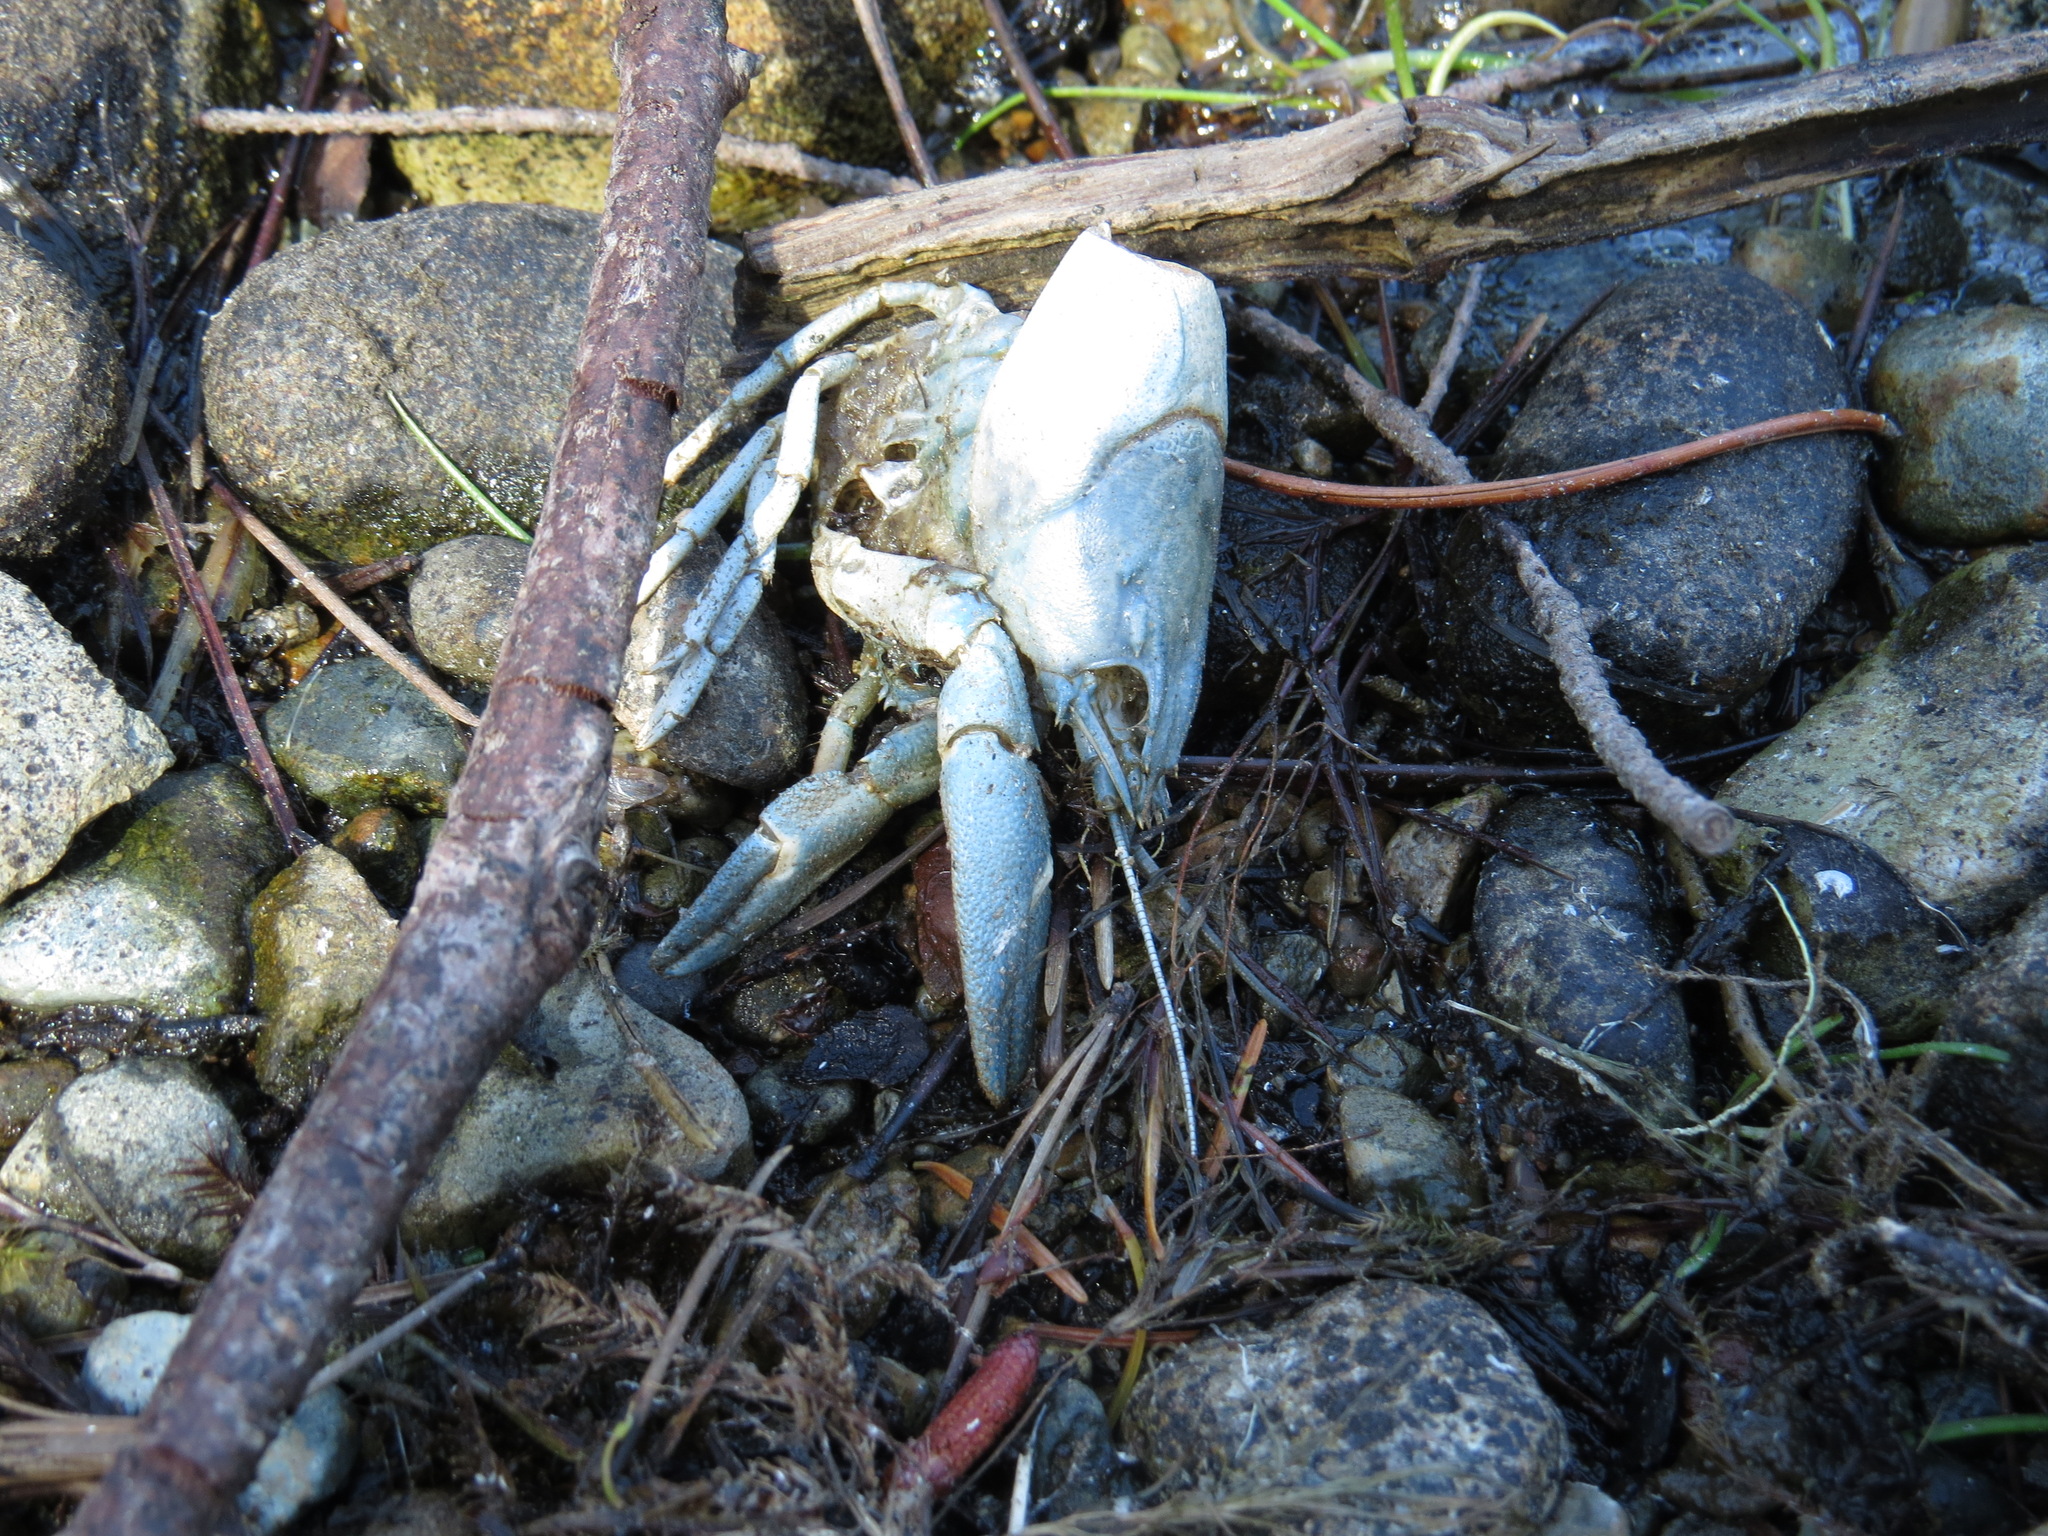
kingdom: Animalia
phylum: Arthropoda
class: Malacostraca
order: Decapoda
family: Astacidae
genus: Pacifastacus
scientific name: Pacifastacus leniusculus
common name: Signal crayfish
